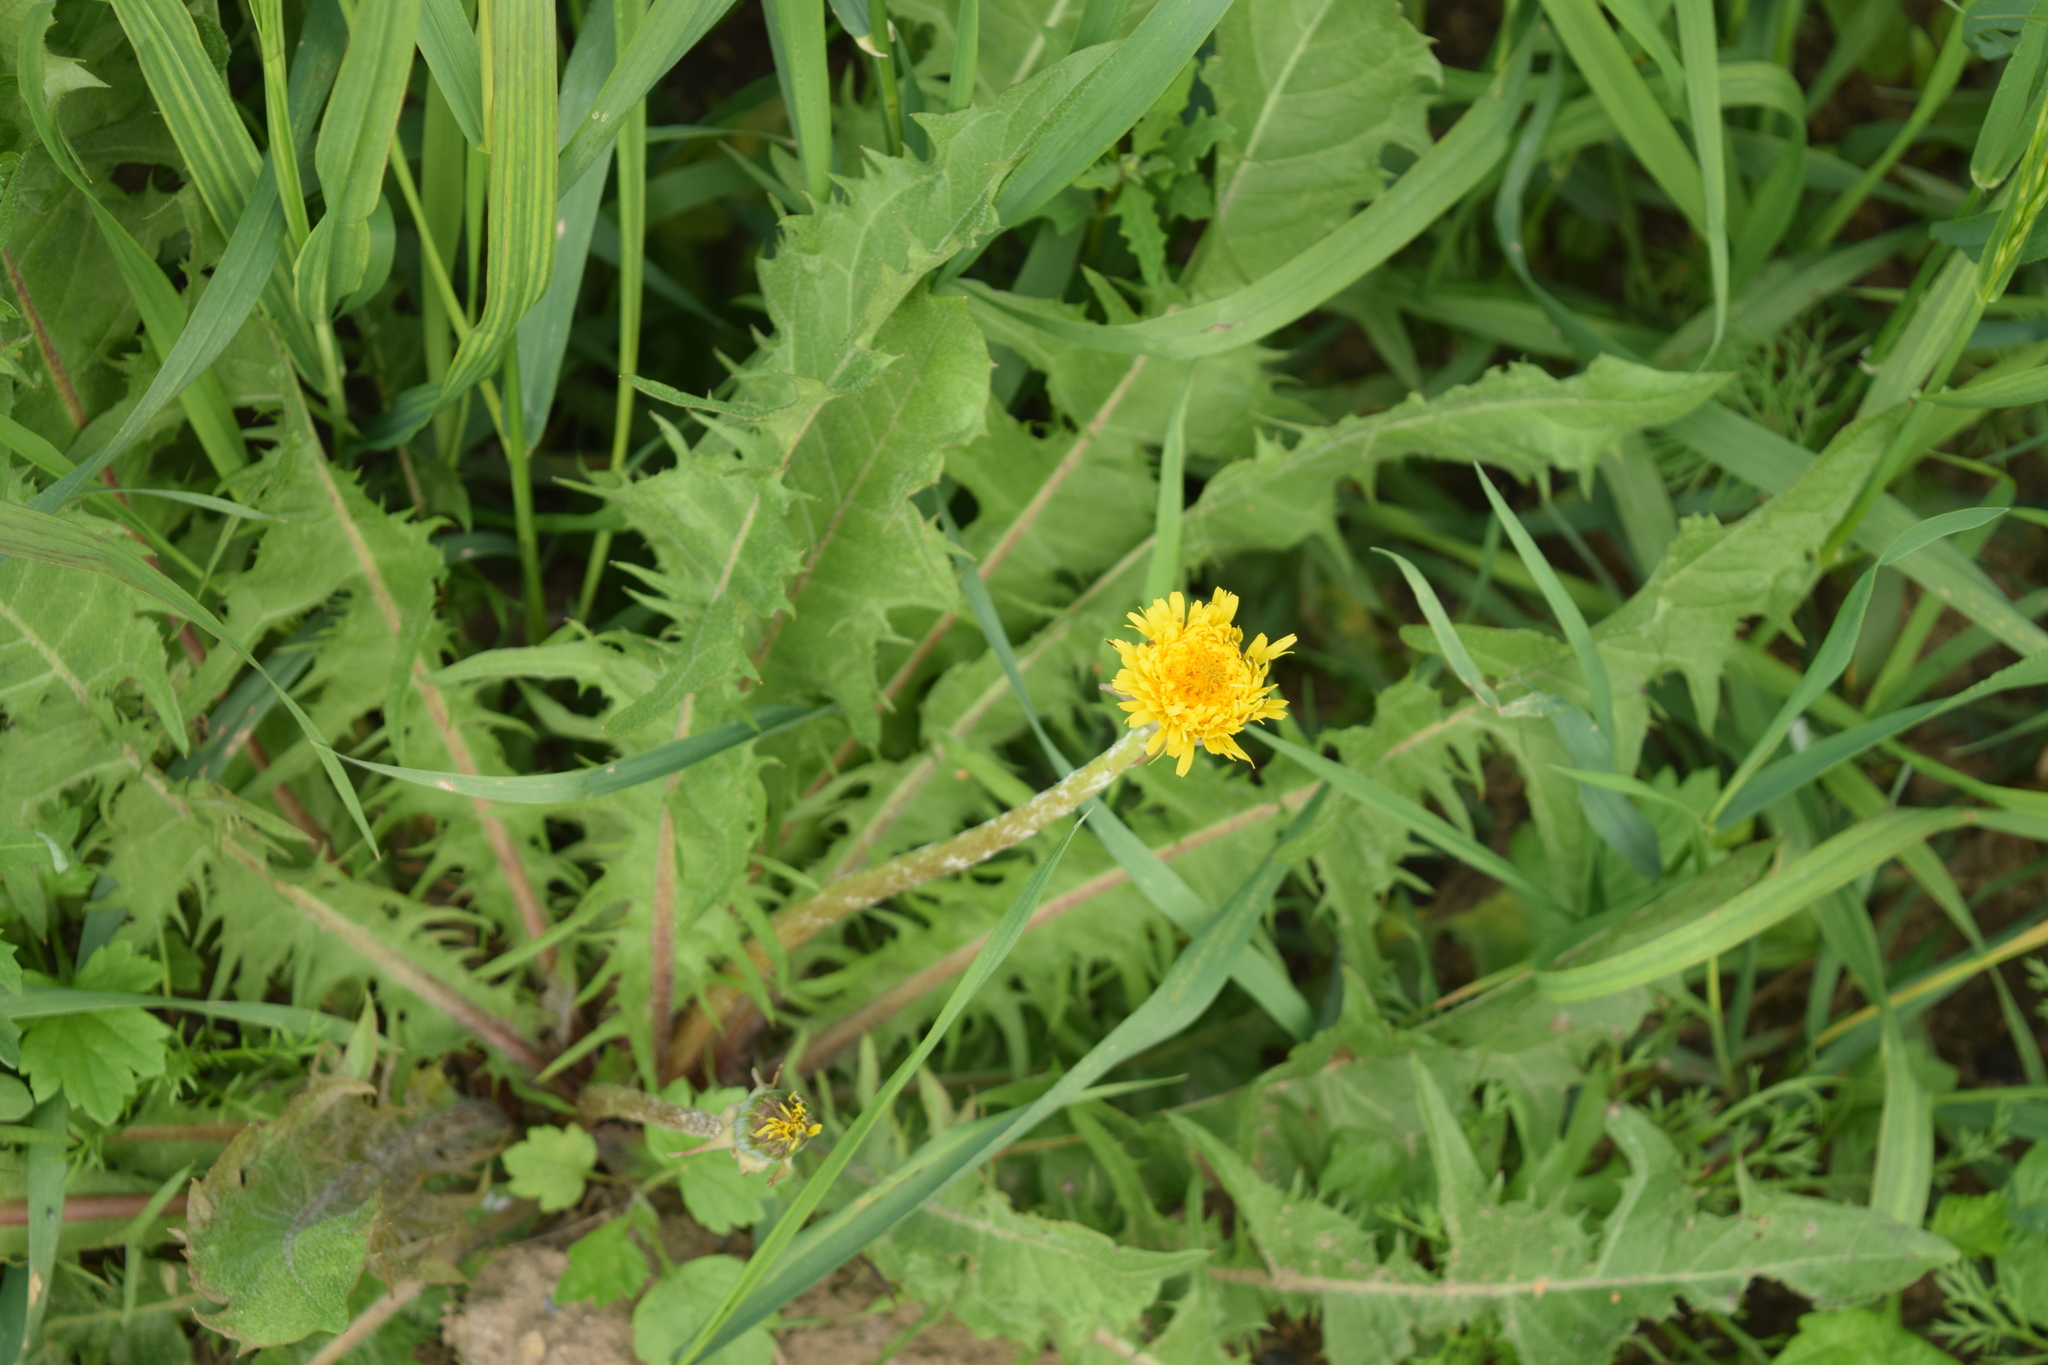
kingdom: Plantae
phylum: Tracheophyta
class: Magnoliopsida
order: Asterales
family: Asteraceae
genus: Taraxacum
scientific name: Taraxacum officinale
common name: Common dandelion
